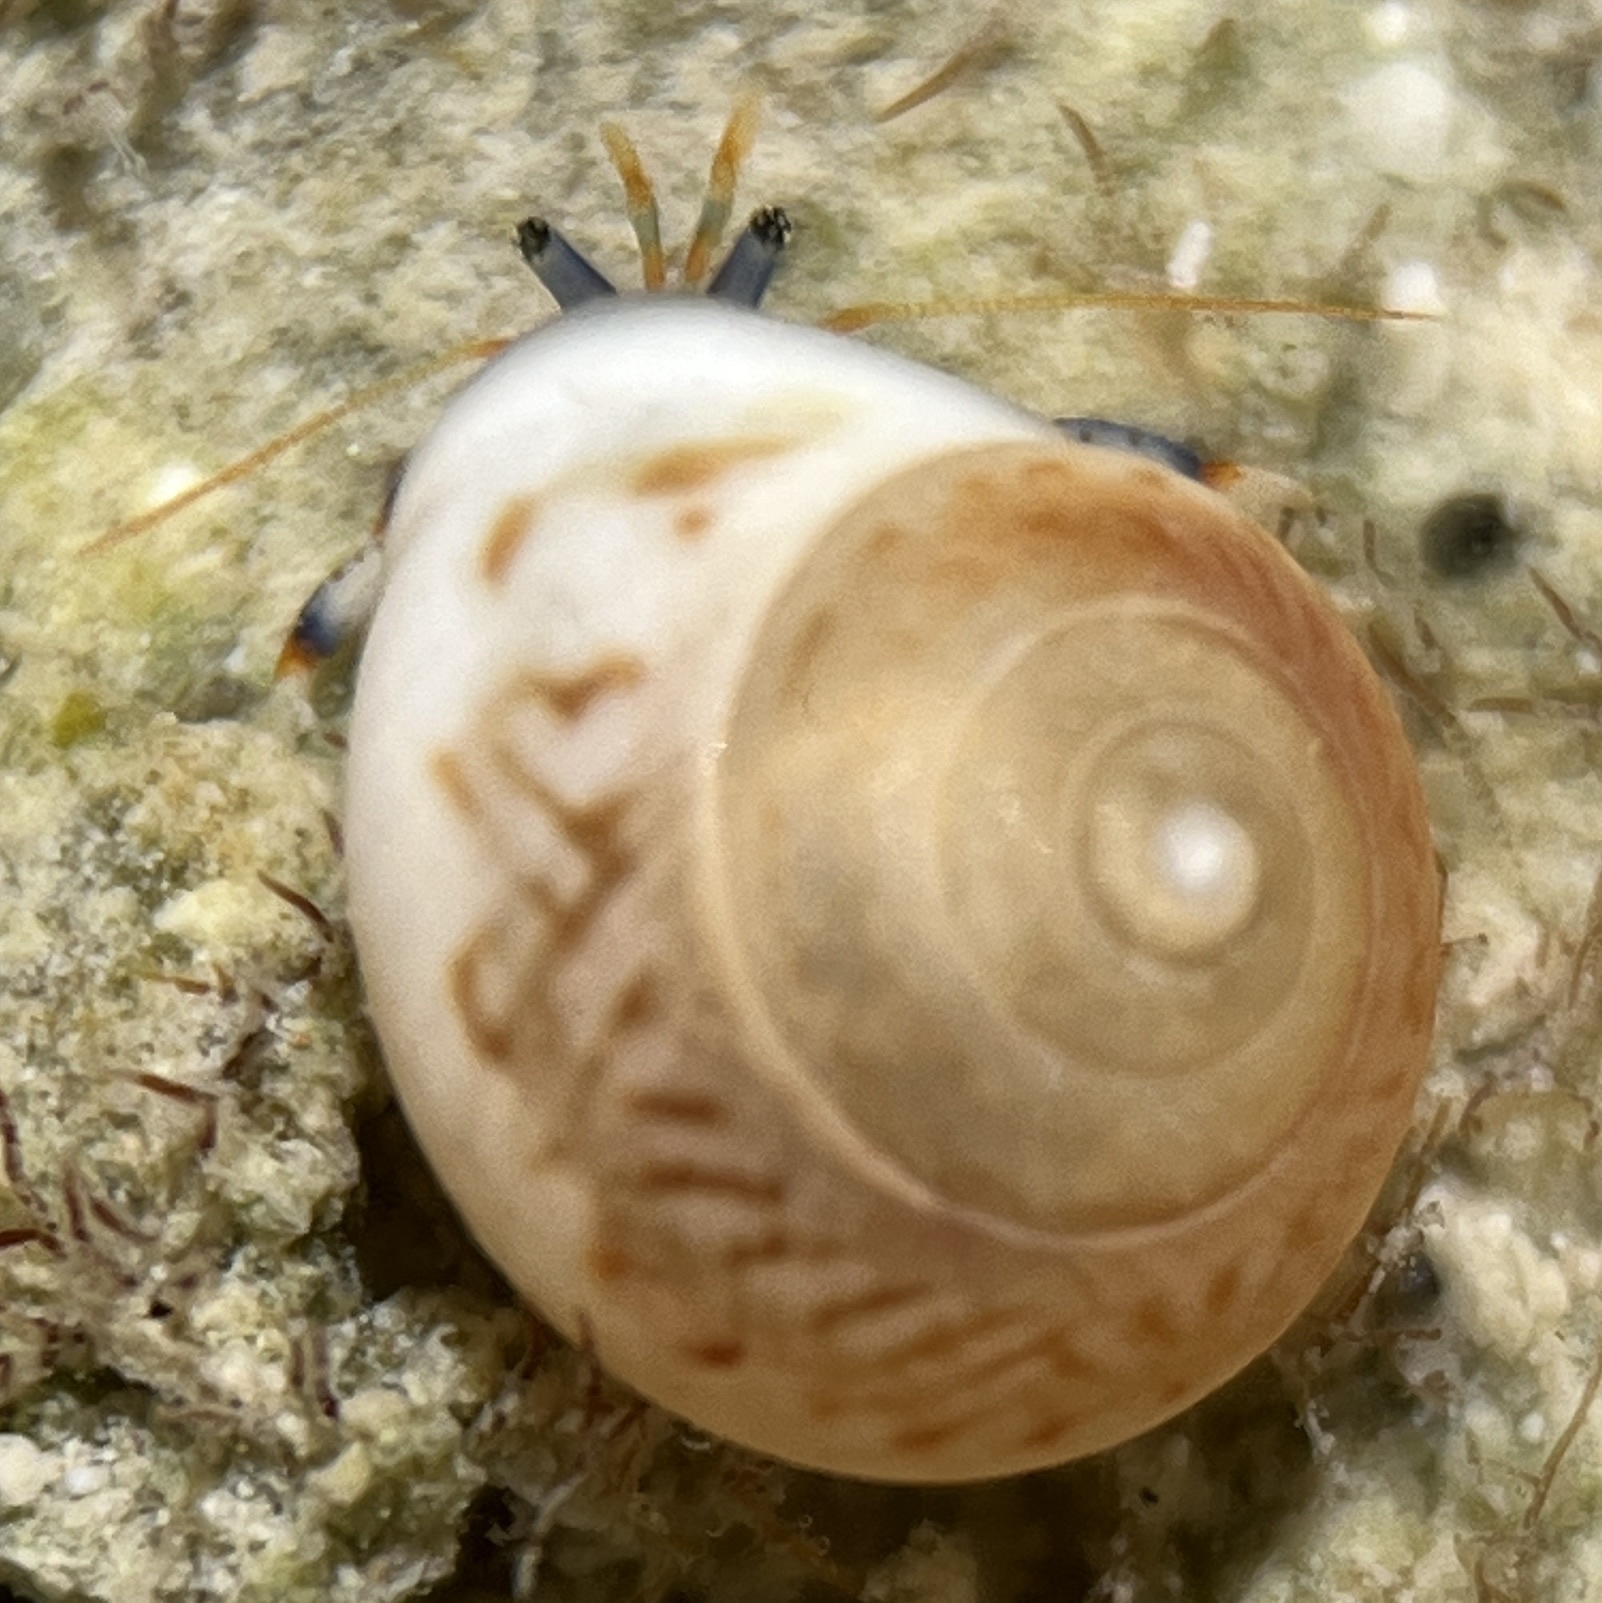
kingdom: Animalia
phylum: Arthropoda
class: Malacostraca
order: Decapoda
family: Diogenidae
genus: Clibanarius
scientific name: Clibanarius tricolor
